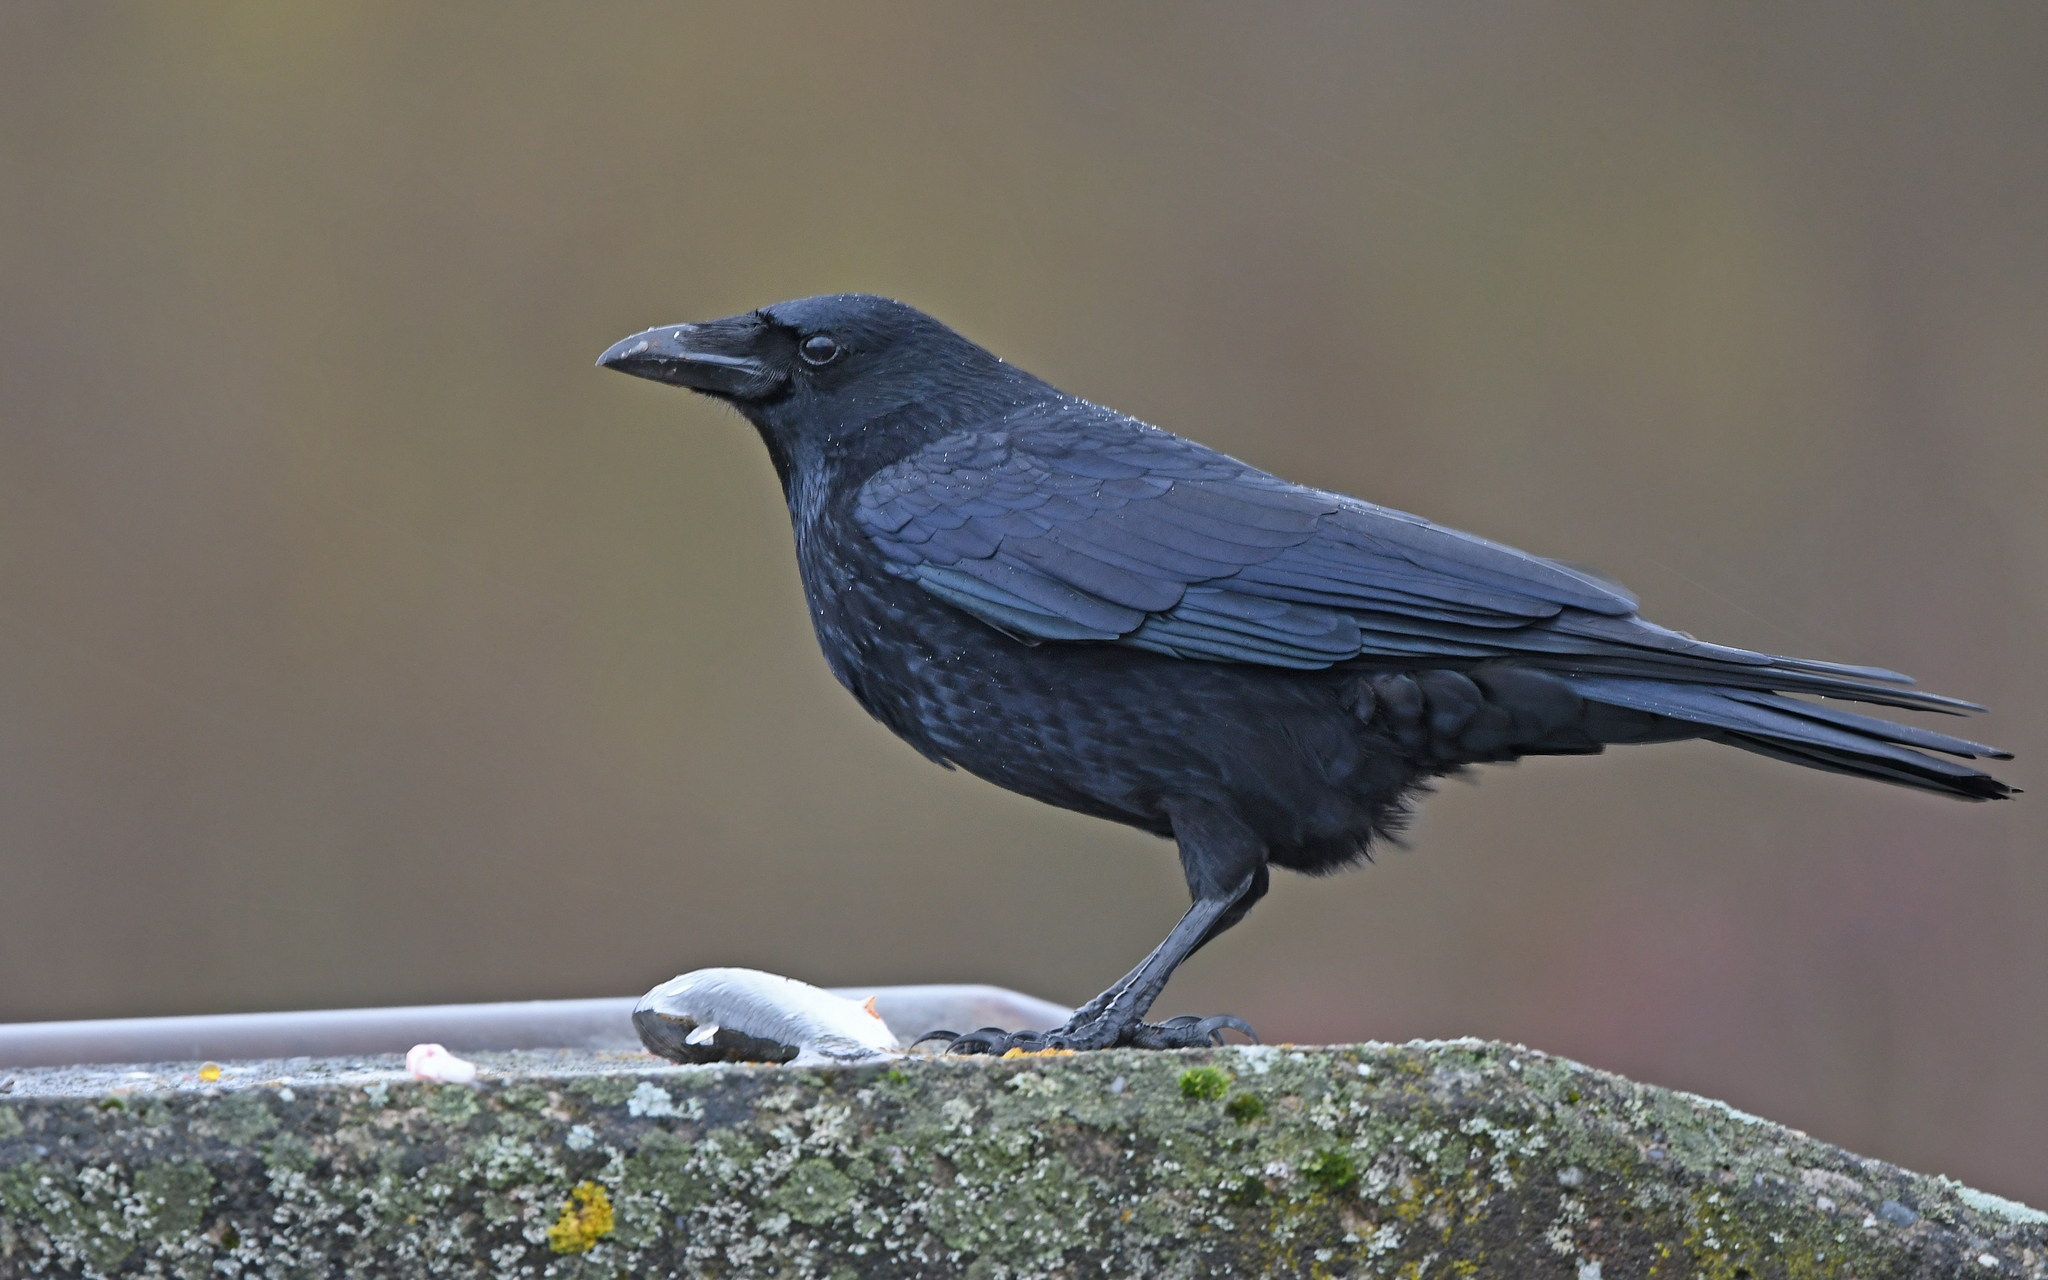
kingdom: Animalia
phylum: Chordata
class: Aves
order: Passeriformes
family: Corvidae
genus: Corvus
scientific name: Corvus corone
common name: Carrion crow
